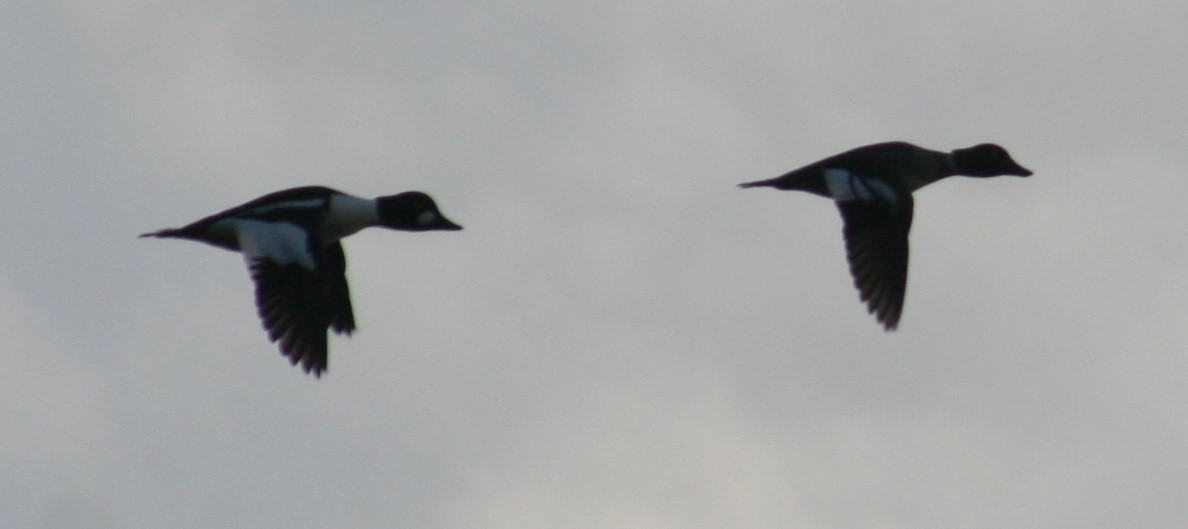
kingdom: Animalia
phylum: Chordata
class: Aves
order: Anseriformes
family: Anatidae
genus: Bucephala
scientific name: Bucephala clangula
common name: Common goldeneye
